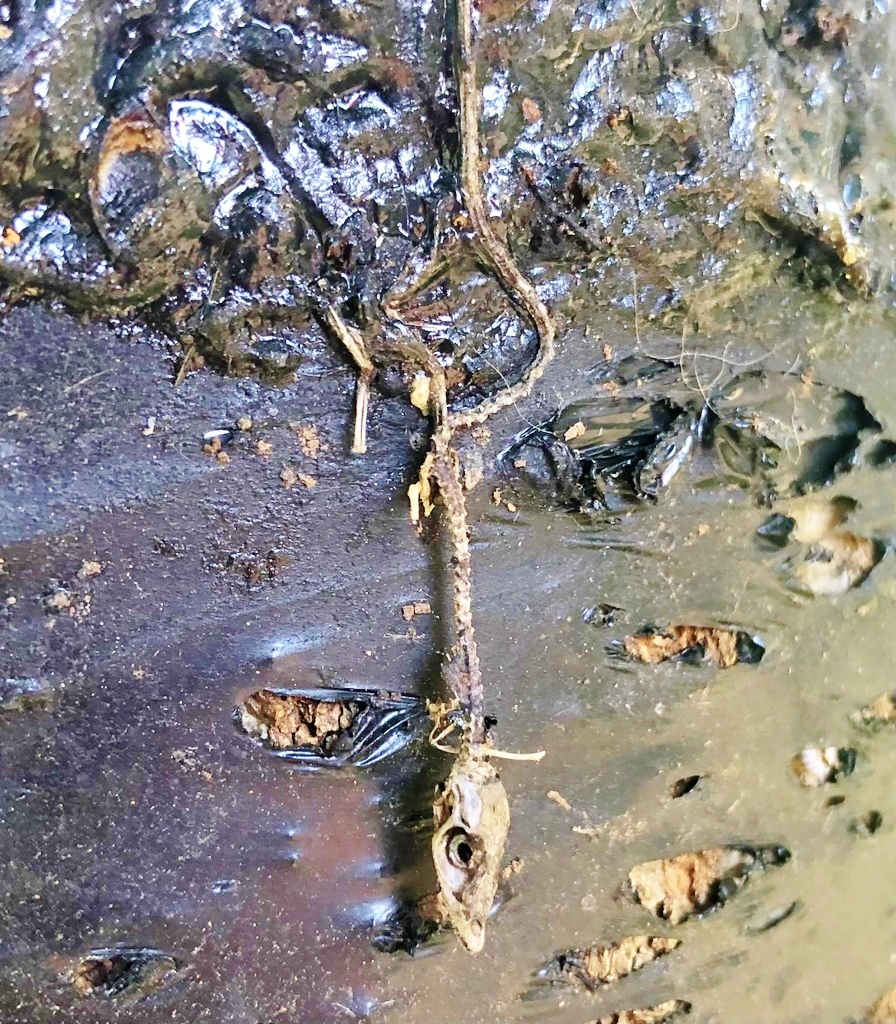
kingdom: Animalia
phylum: Chordata
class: Squamata
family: Dactyloidae
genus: Anolis
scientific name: Anolis carolinensis
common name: Green anole
